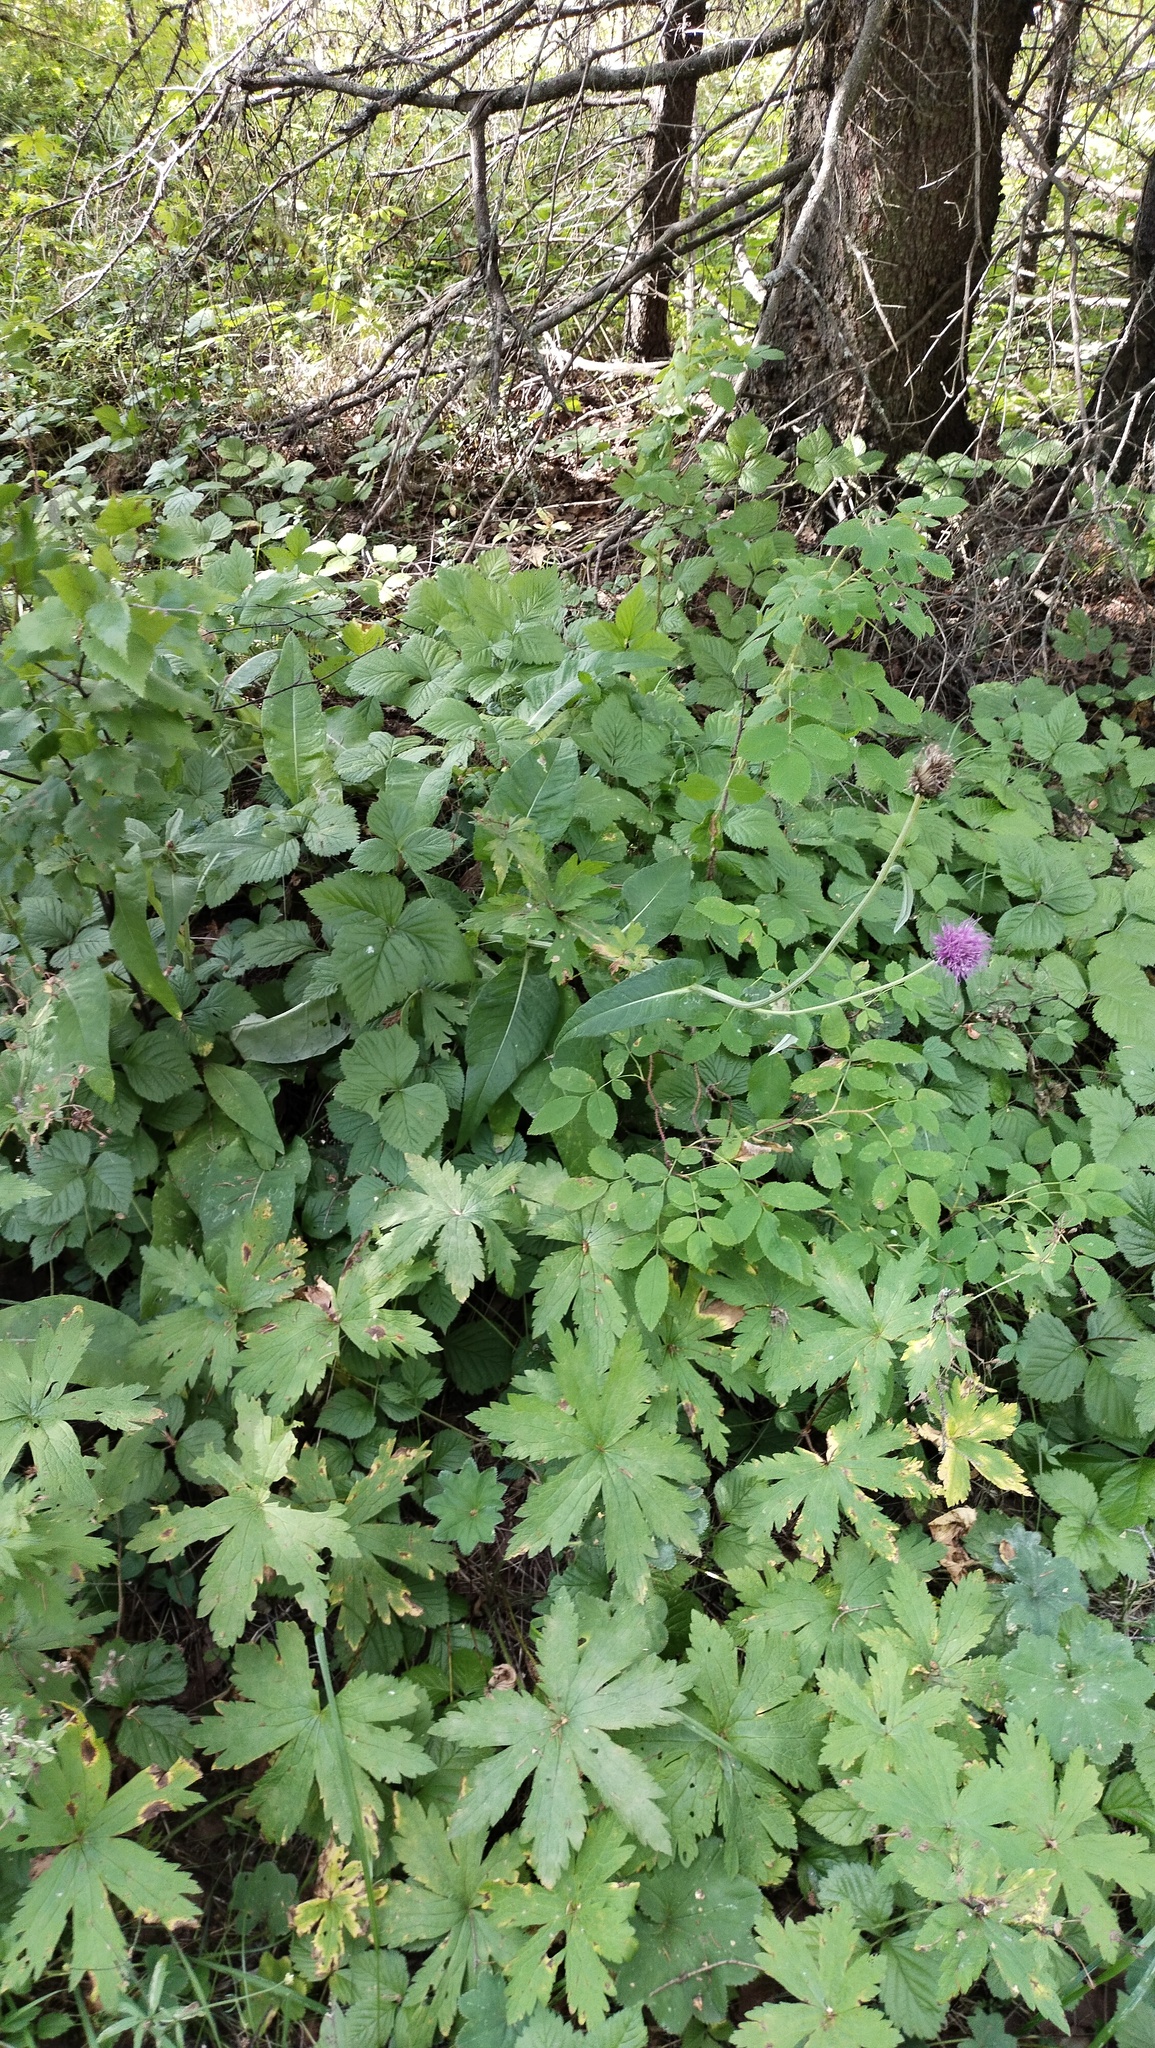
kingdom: Plantae
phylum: Tracheophyta
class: Magnoliopsida
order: Asterales
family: Asteraceae
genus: Cirsium
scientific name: Cirsium heterophyllum
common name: Melancholy thistle
